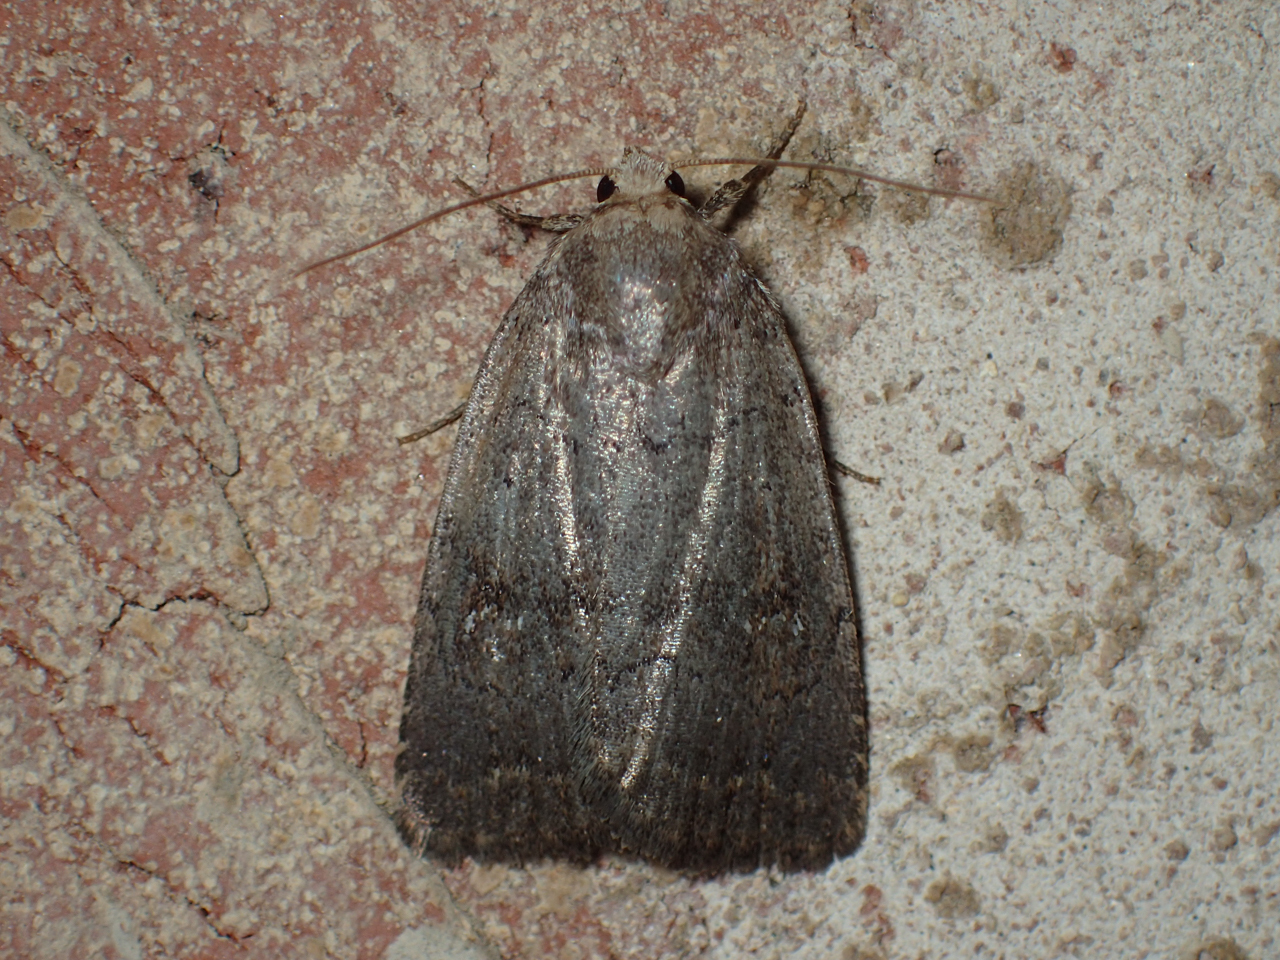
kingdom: Animalia
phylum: Arthropoda
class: Insecta
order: Lepidoptera
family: Noctuidae
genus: Athetis
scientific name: Athetis tarda
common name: Slowpoke moth
